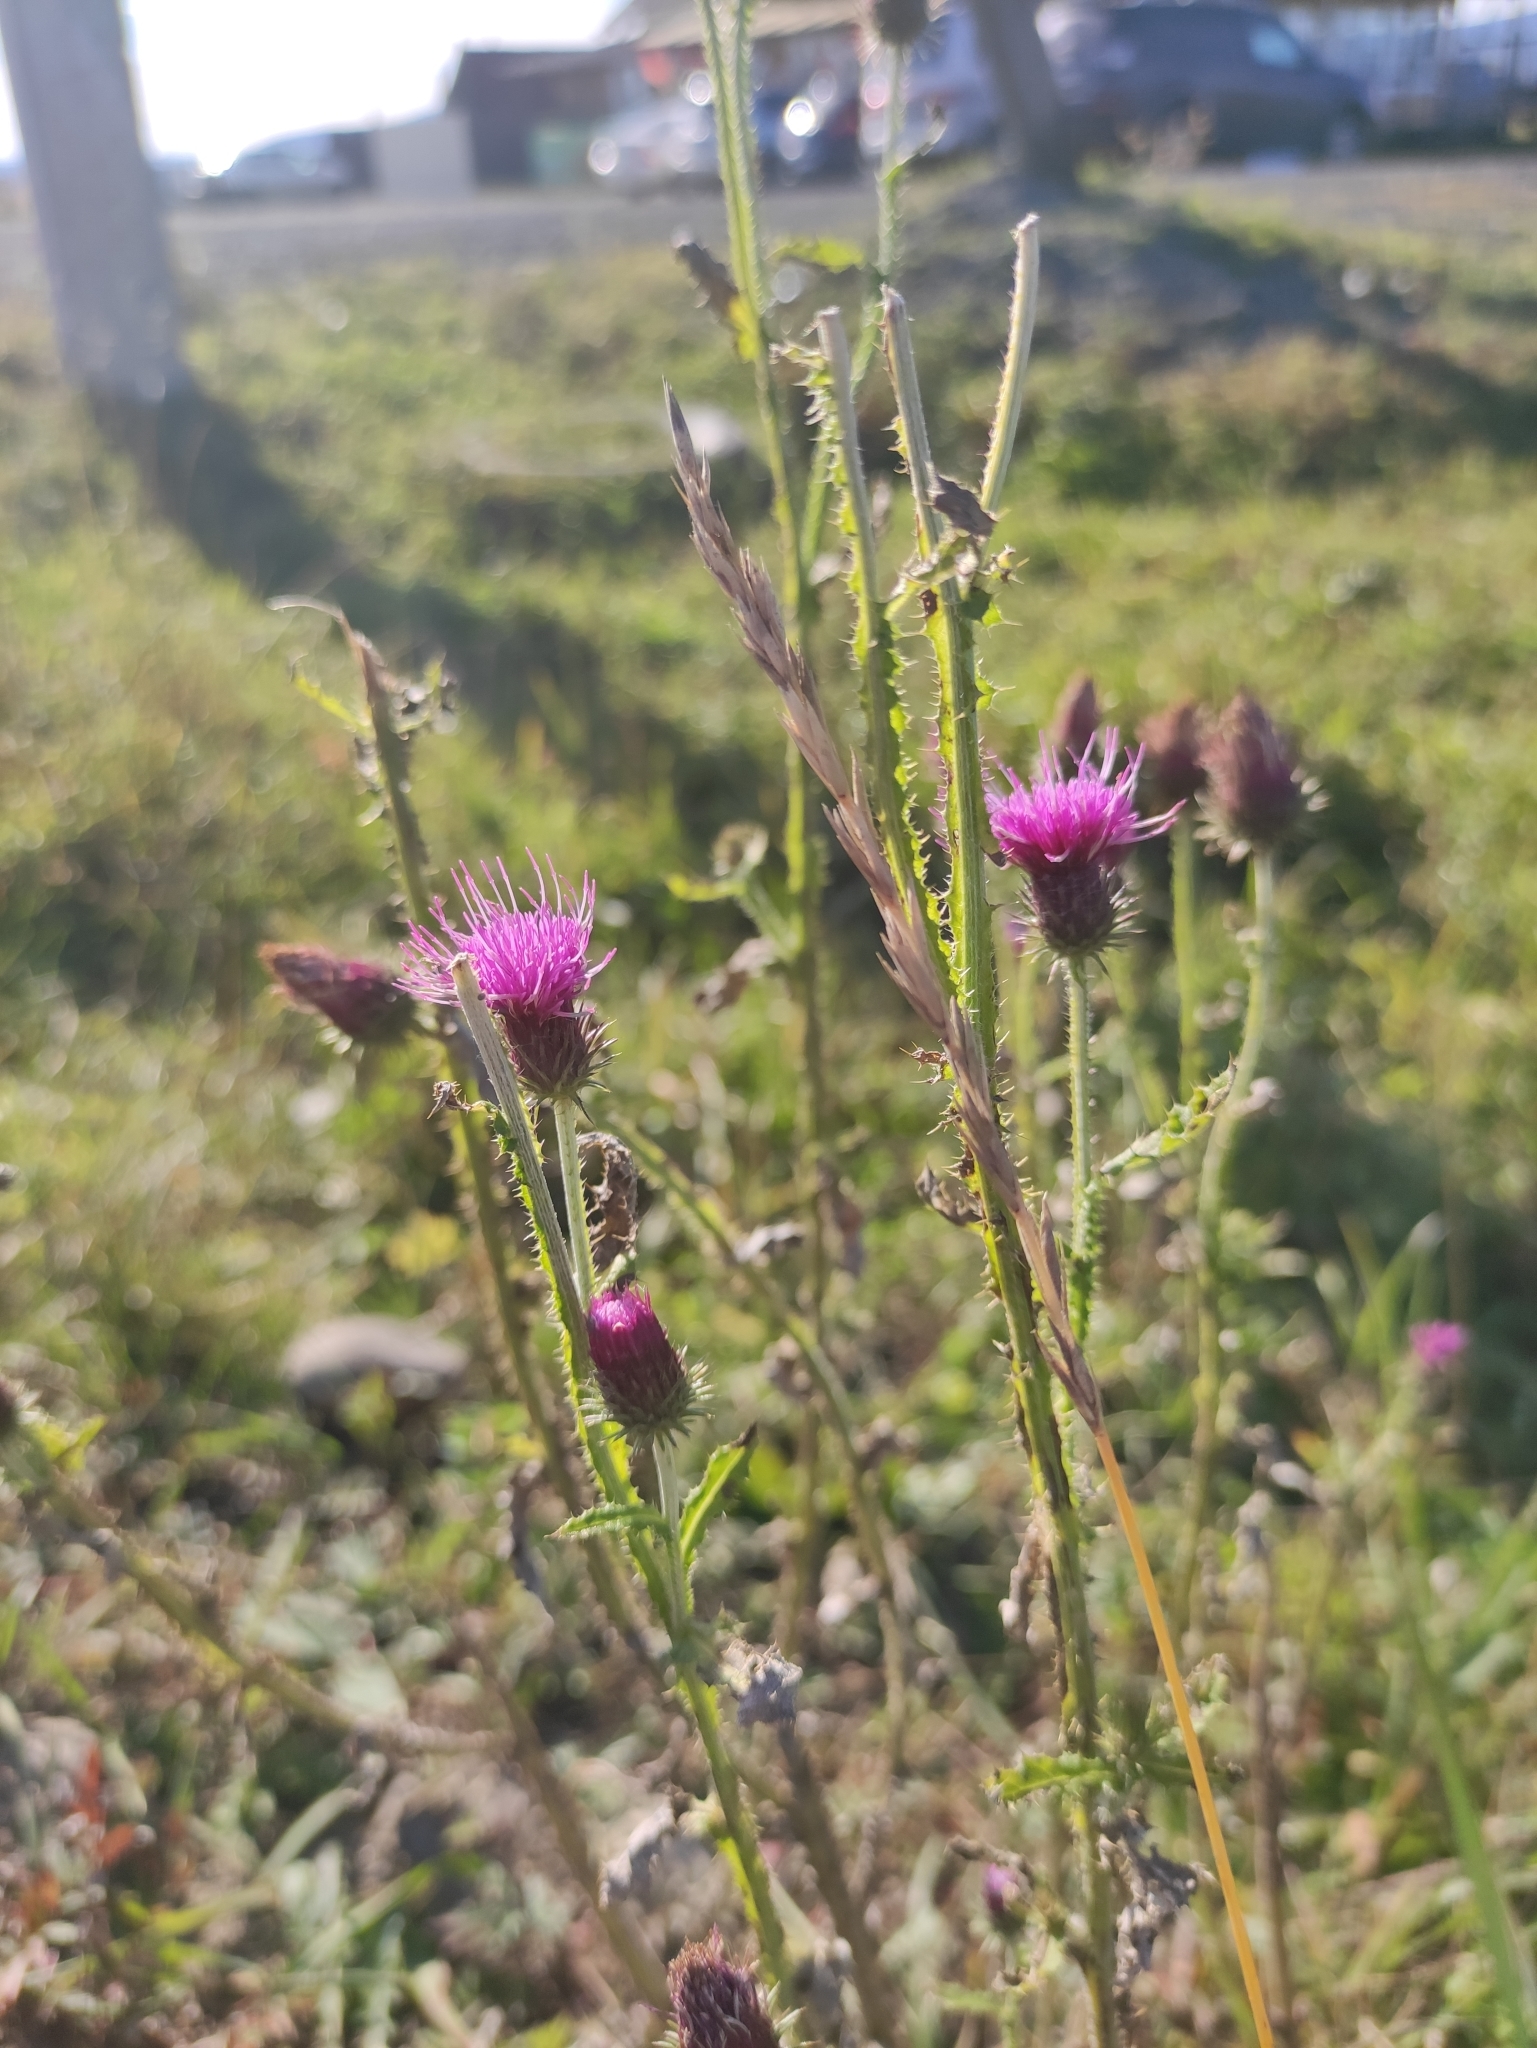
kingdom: Plantae
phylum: Tracheophyta
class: Magnoliopsida
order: Asterales
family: Asteraceae
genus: Carduus
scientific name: Carduus crispus
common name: Welted thistle
